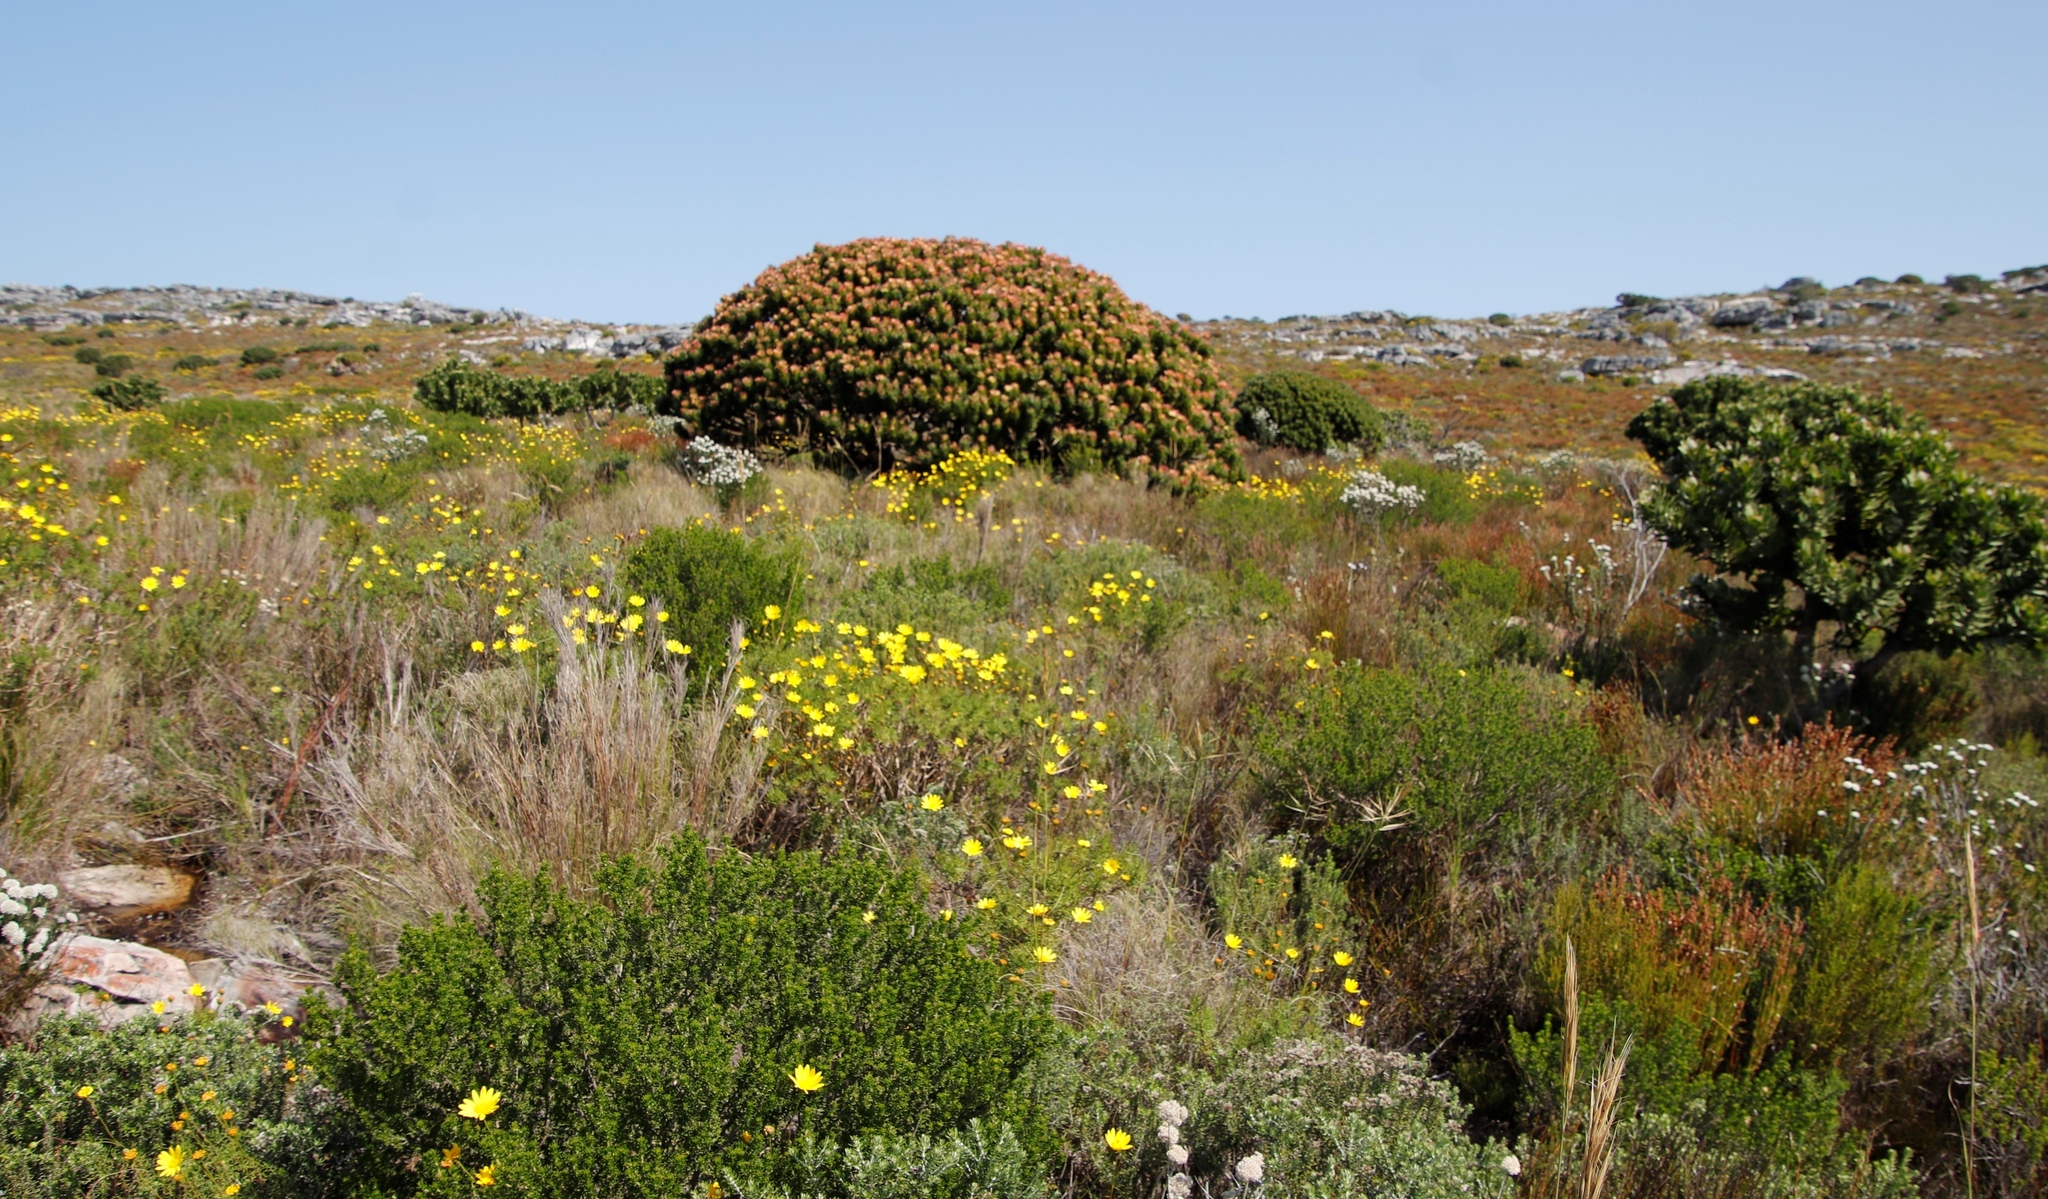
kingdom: Plantae
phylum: Tracheophyta
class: Magnoliopsida
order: Proteales
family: Proteaceae
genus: Mimetes
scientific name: Mimetes fimbriifolius
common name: Fringed bottlebrush
